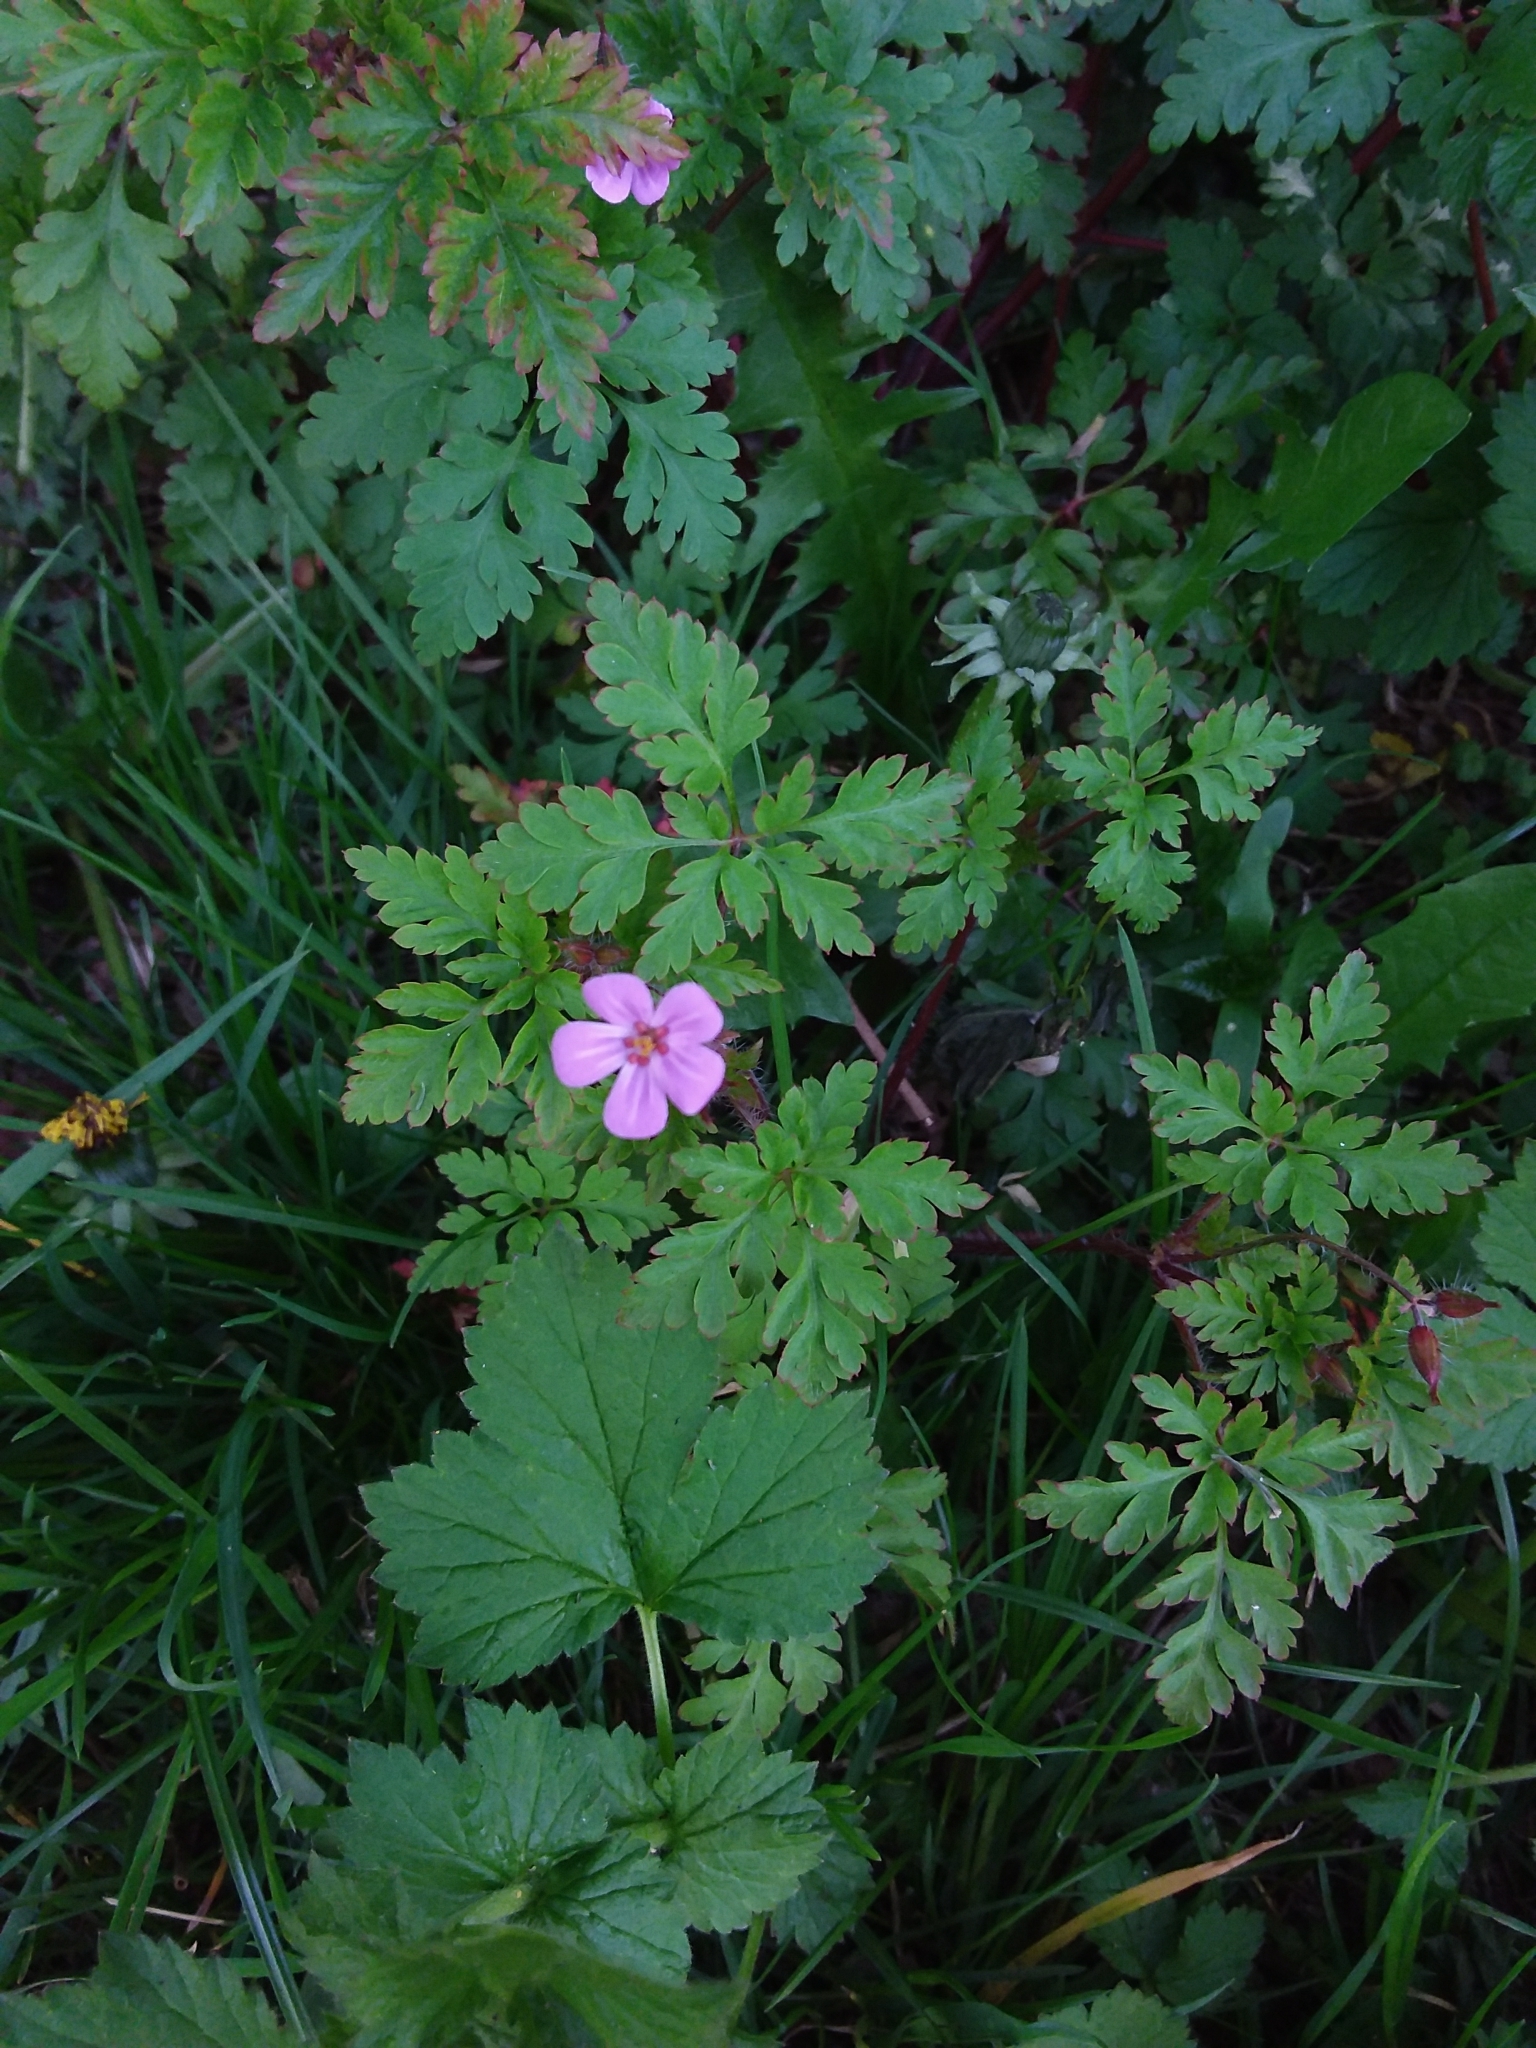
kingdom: Plantae
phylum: Tracheophyta
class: Magnoliopsida
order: Geraniales
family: Geraniaceae
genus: Geranium
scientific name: Geranium robertianum
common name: Herb-robert
